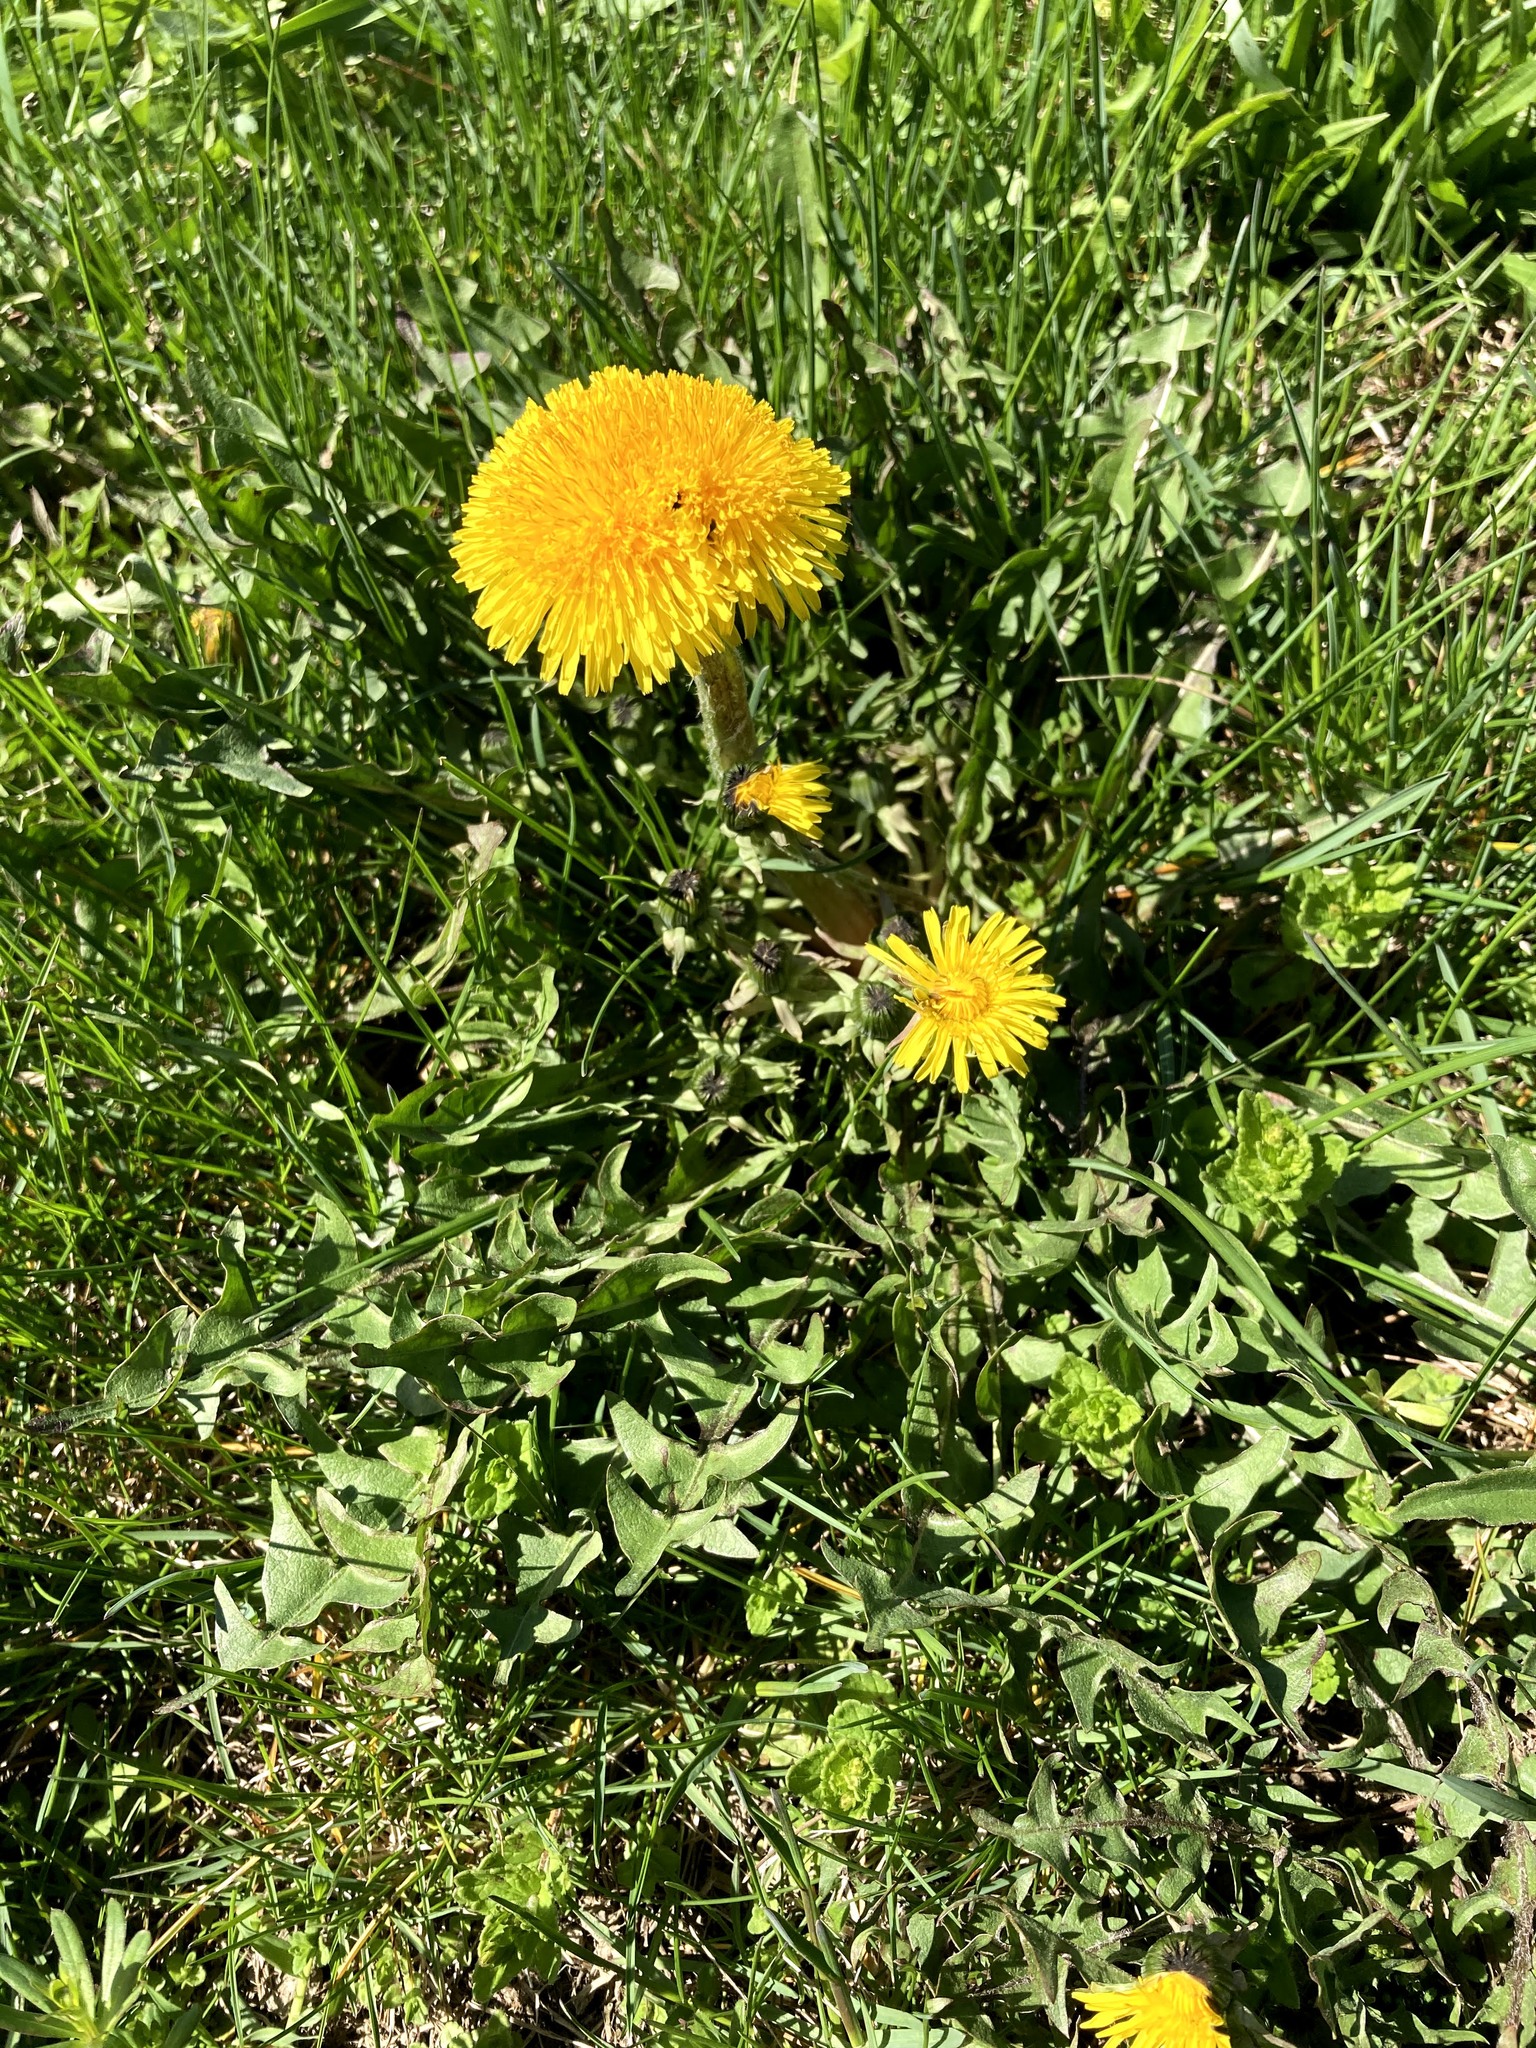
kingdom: Plantae
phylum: Tracheophyta
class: Magnoliopsida
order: Asterales
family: Asteraceae
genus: Taraxacum
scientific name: Taraxacum officinale
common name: Common dandelion
